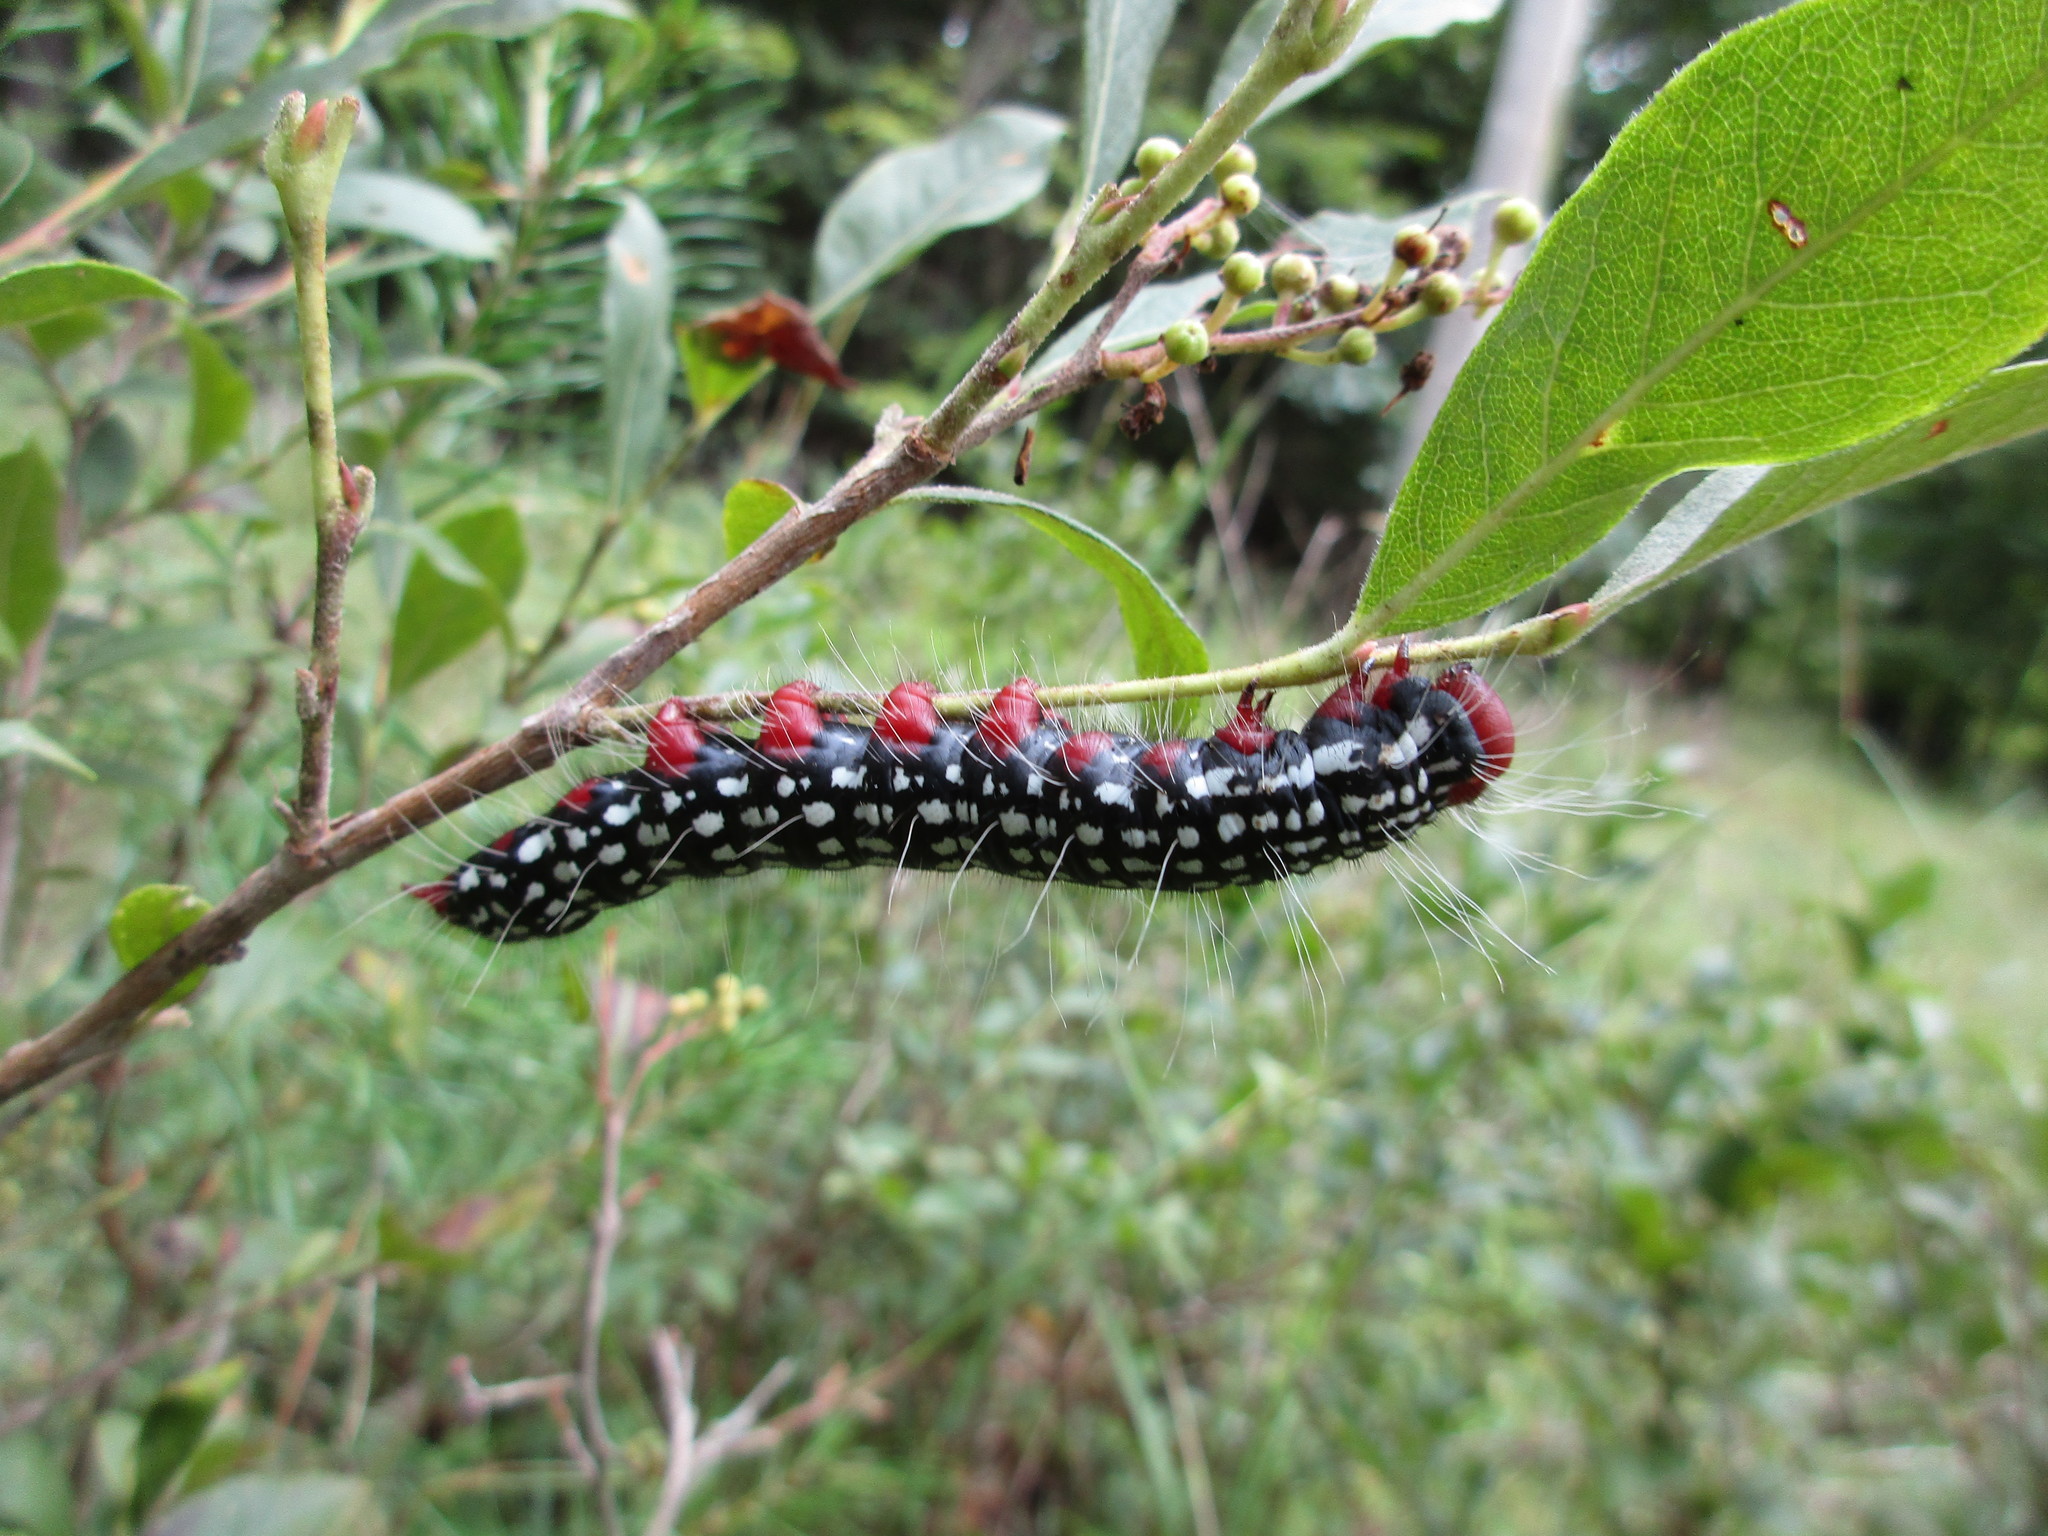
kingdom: Animalia
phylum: Arthropoda
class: Insecta
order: Lepidoptera
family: Notodontidae
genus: Datana
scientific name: Datana major
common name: Azalea caterpillar
